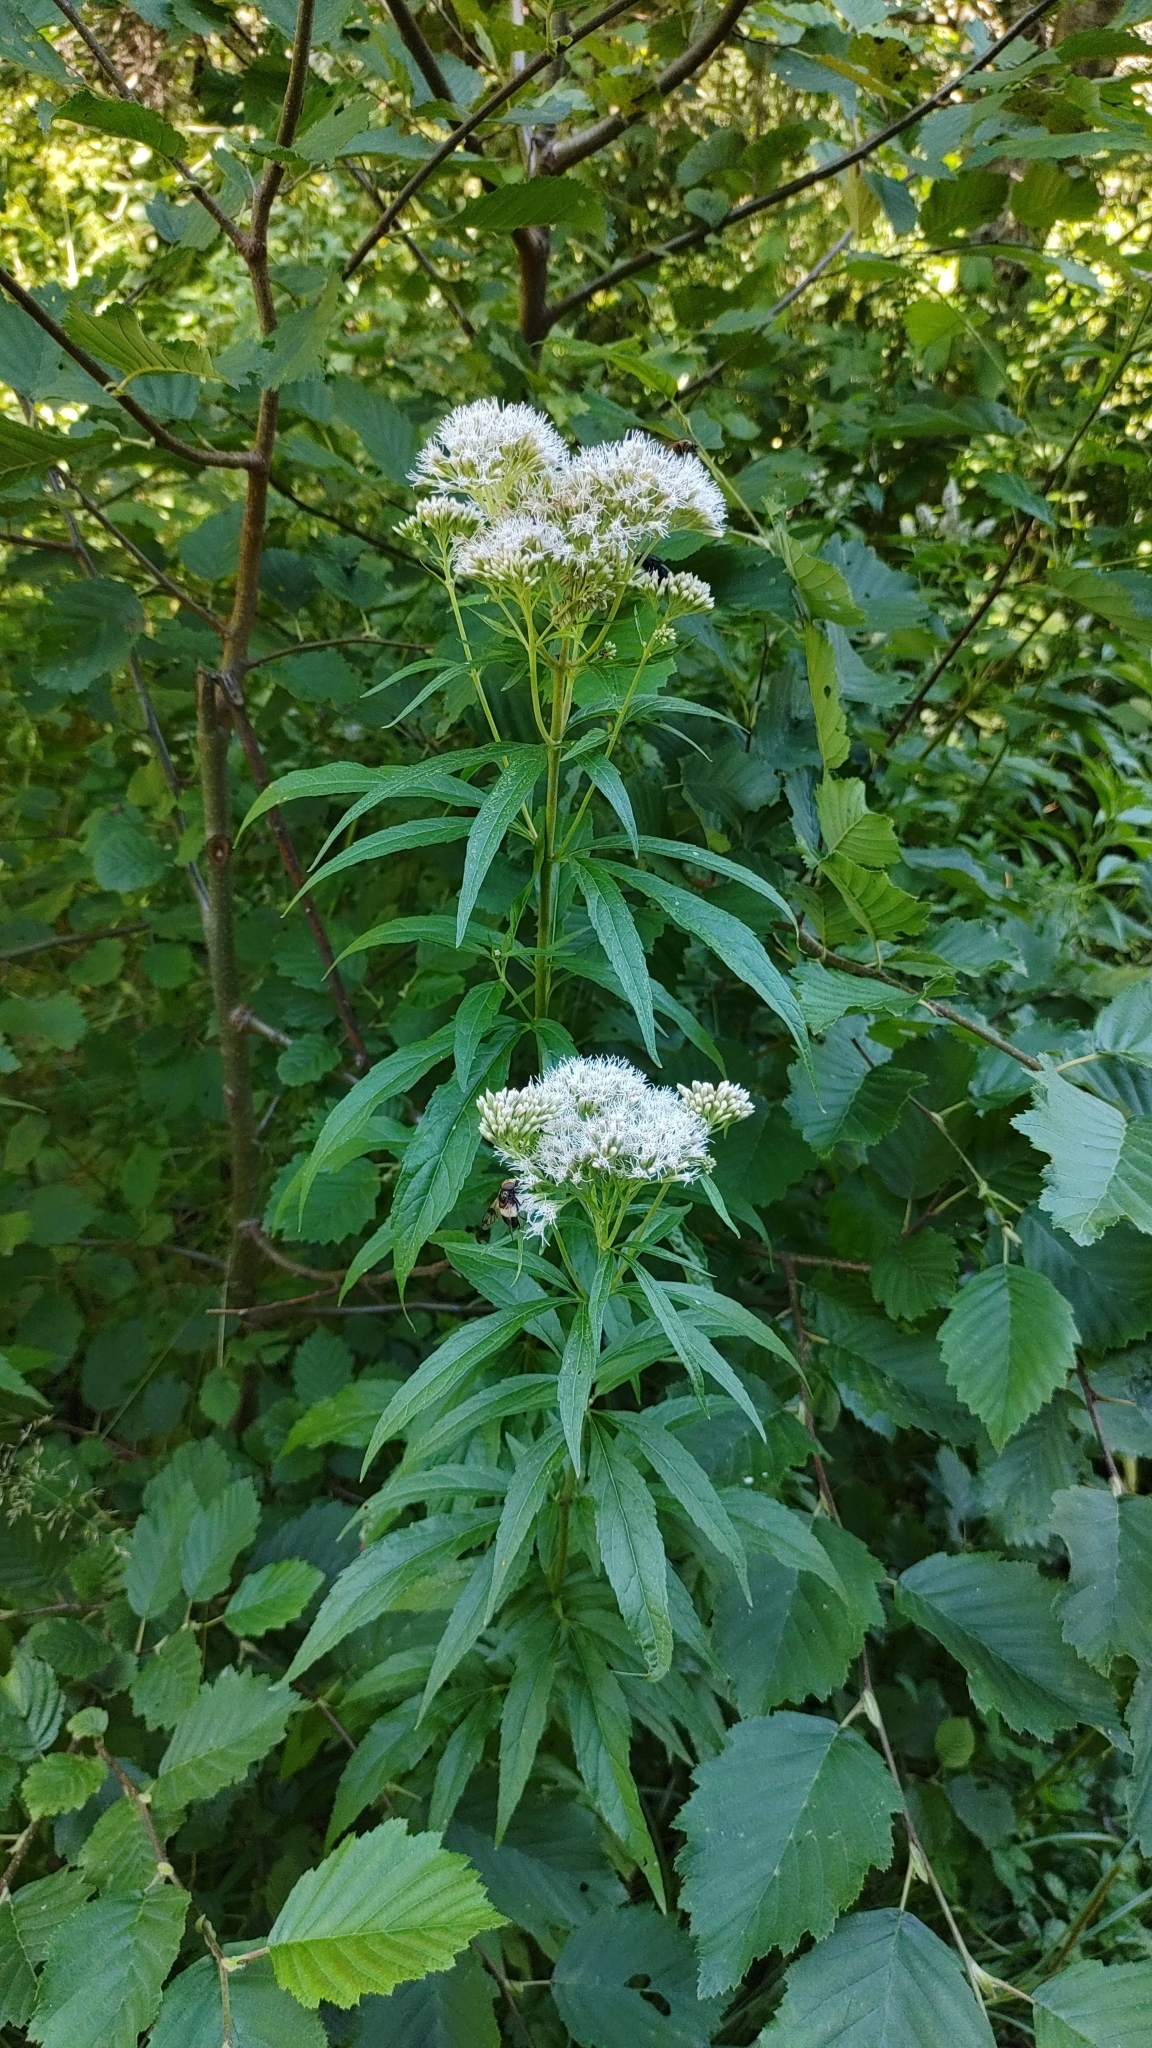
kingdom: Plantae
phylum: Tracheophyta
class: Magnoliopsida
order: Asterales
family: Asteraceae
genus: Eupatorium
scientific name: Eupatorium cannabinum
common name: Hemp-agrimony
